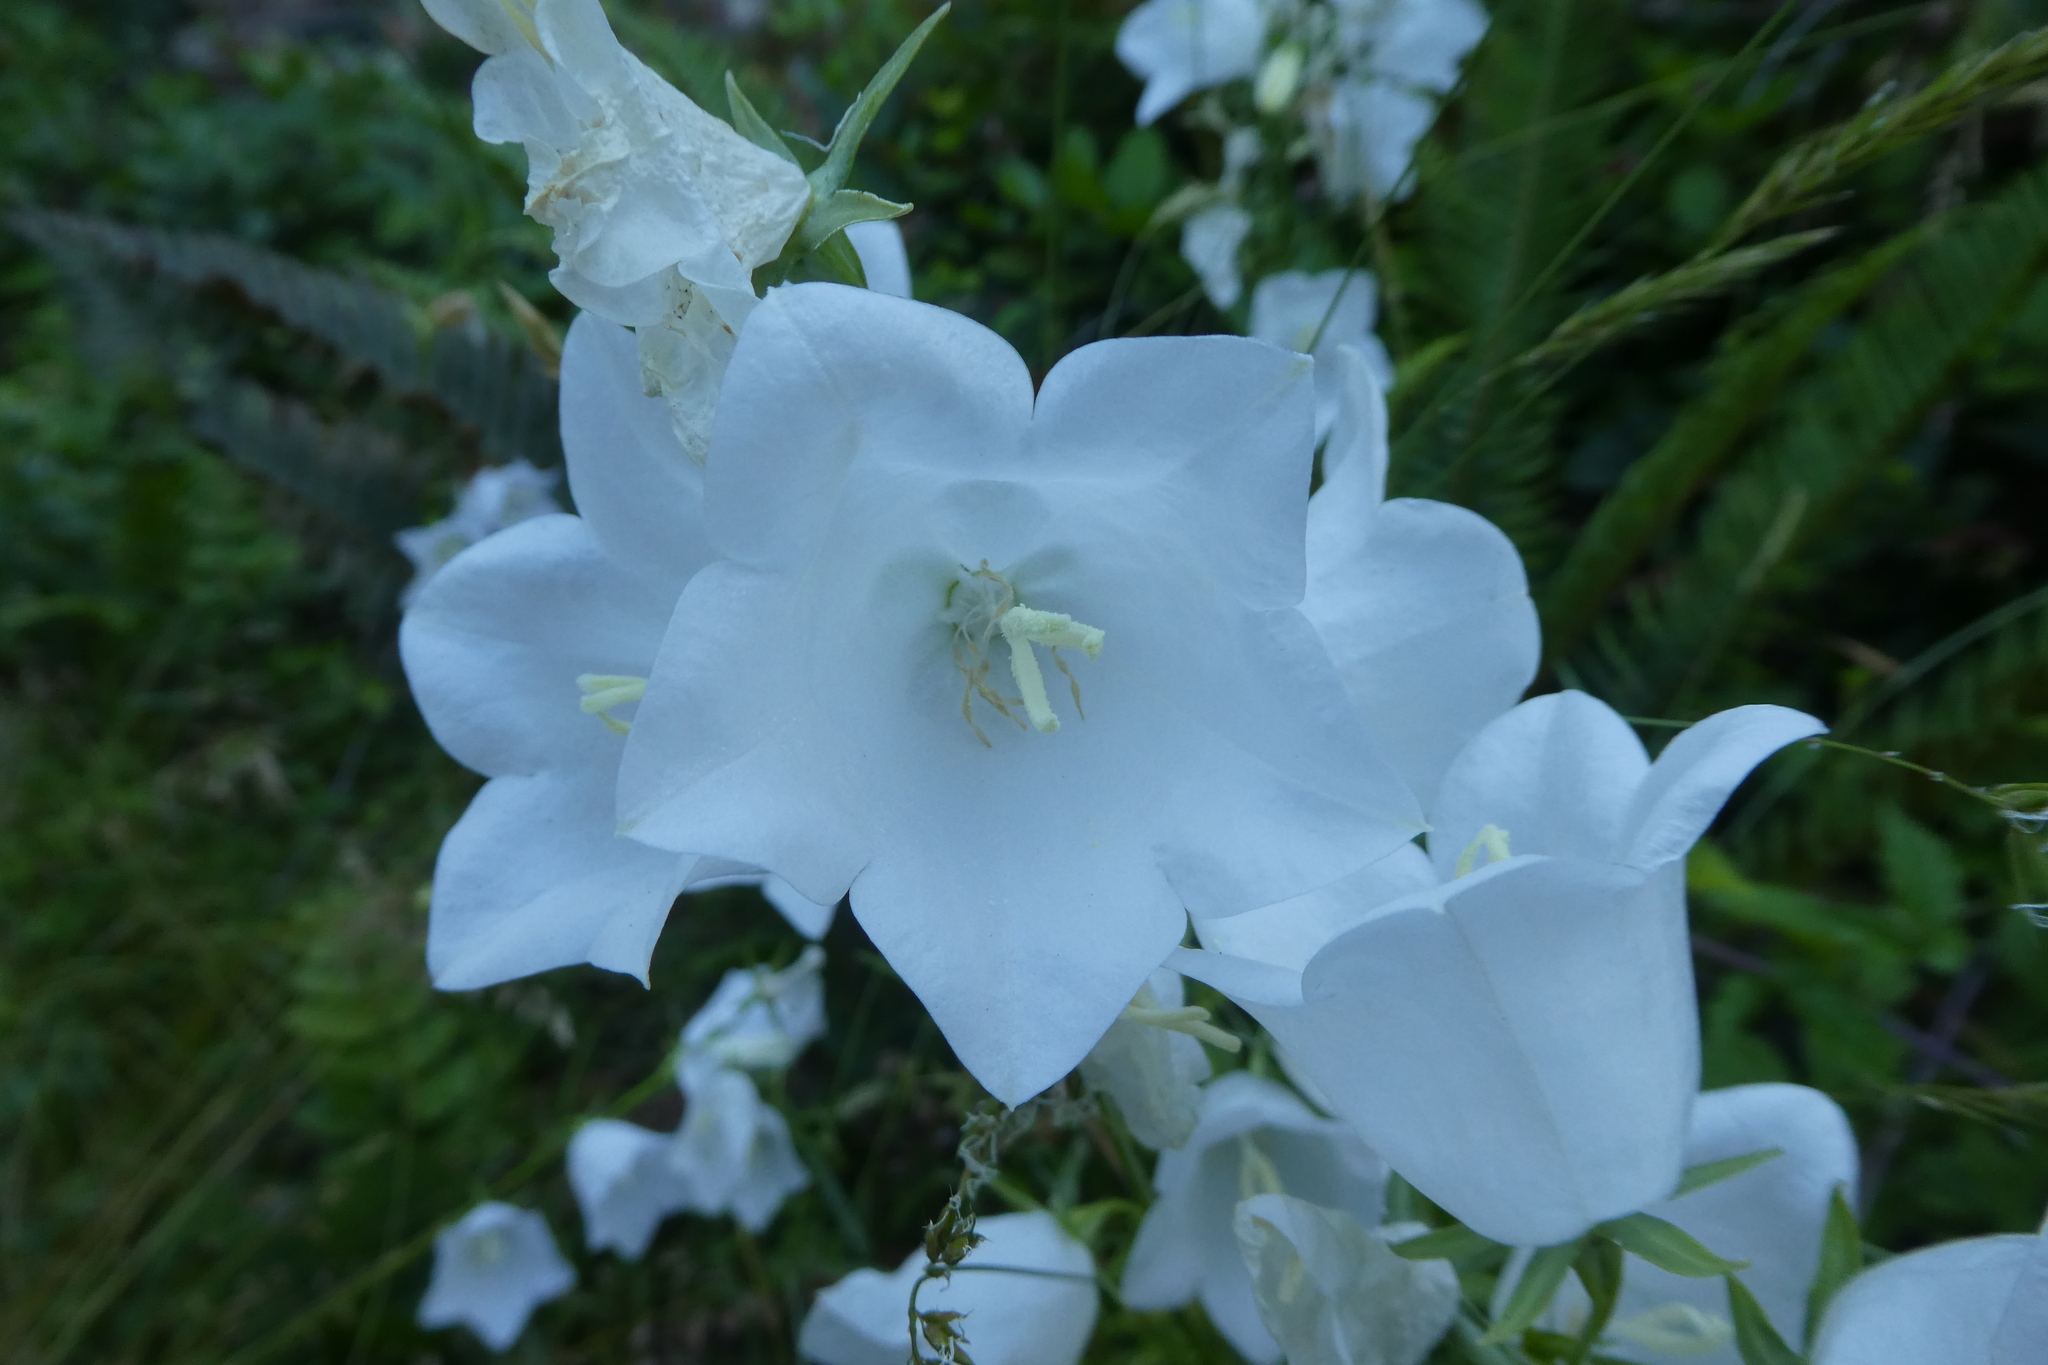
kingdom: Plantae
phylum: Tracheophyta
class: Magnoliopsida
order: Asterales
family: Campanulaceae
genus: Campanula
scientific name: Campanula persicifolia
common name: Peach-leaved bellflower
